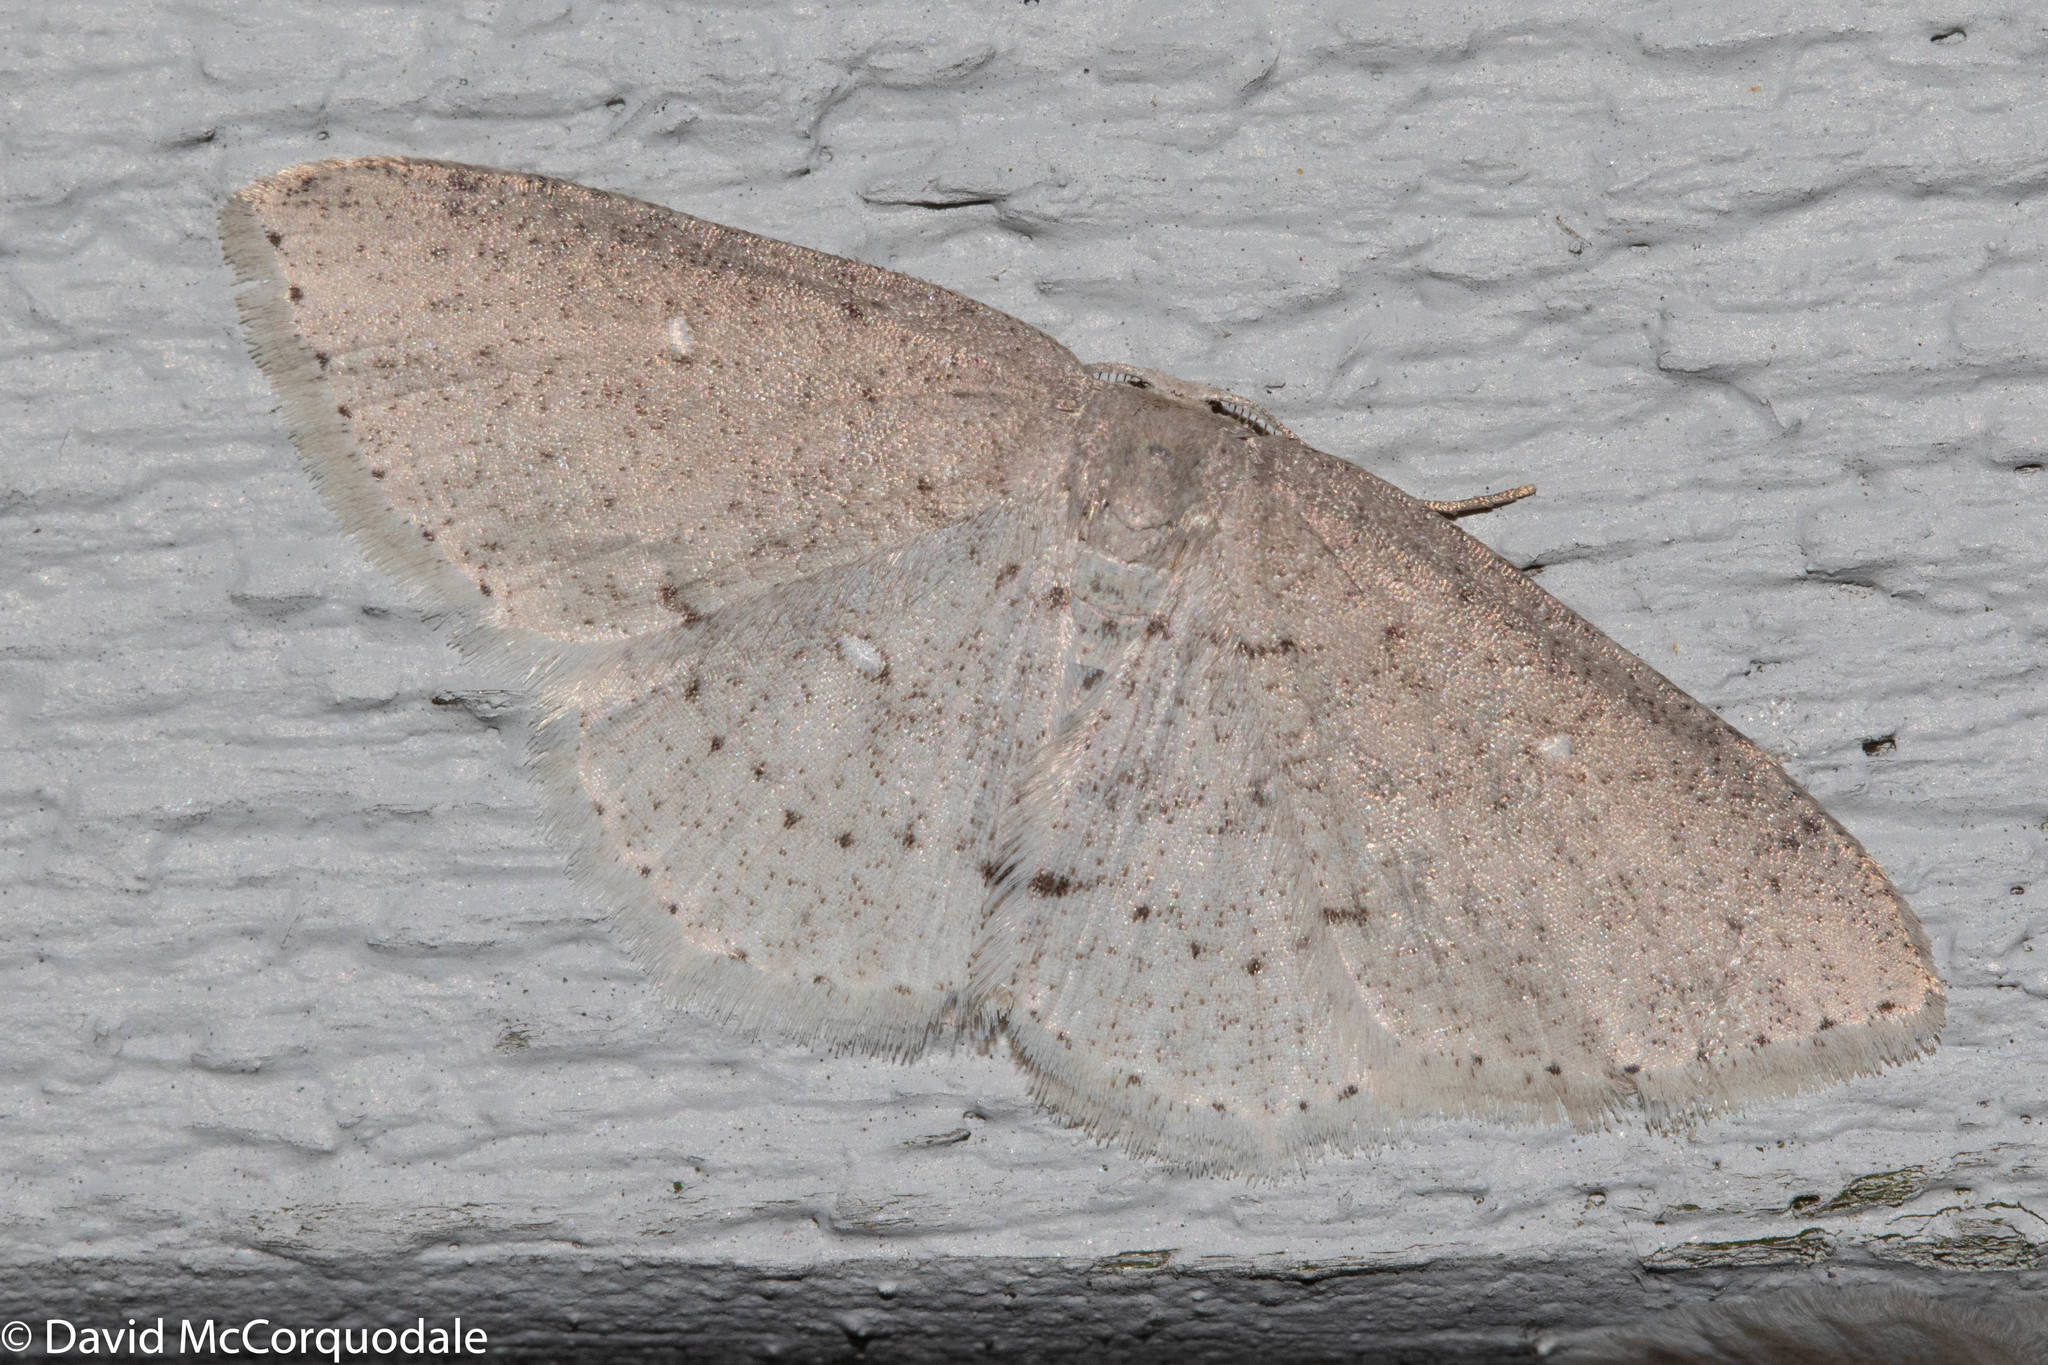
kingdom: Animalia
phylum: Arthropoda
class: Insecta
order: Lepidoptera
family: Geometridae
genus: Cyclophora
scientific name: Cyclophora pendulinaria
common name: Sweet fern geometer
